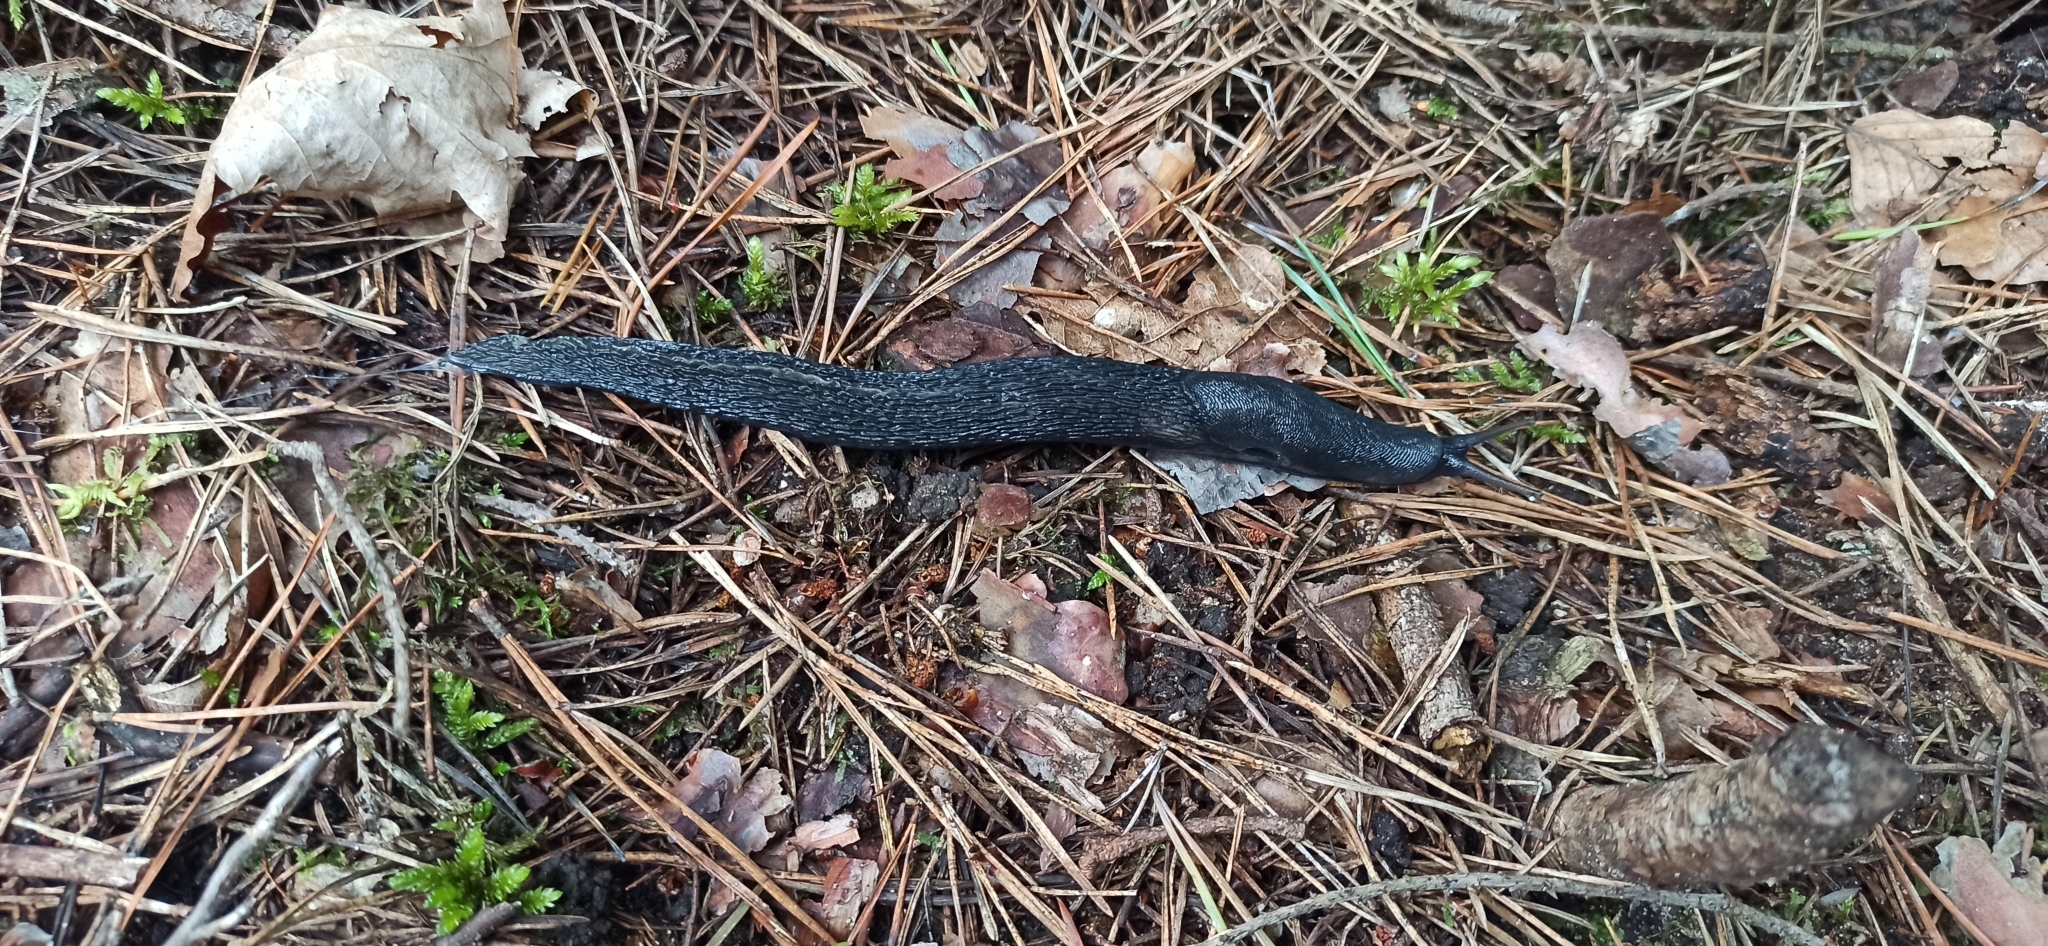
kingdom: Animalia
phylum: Mollusca
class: Gastropoda
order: Stylommatophora
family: Limacidae
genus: Limax
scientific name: Limax cinereoniger
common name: Ash-black slug
